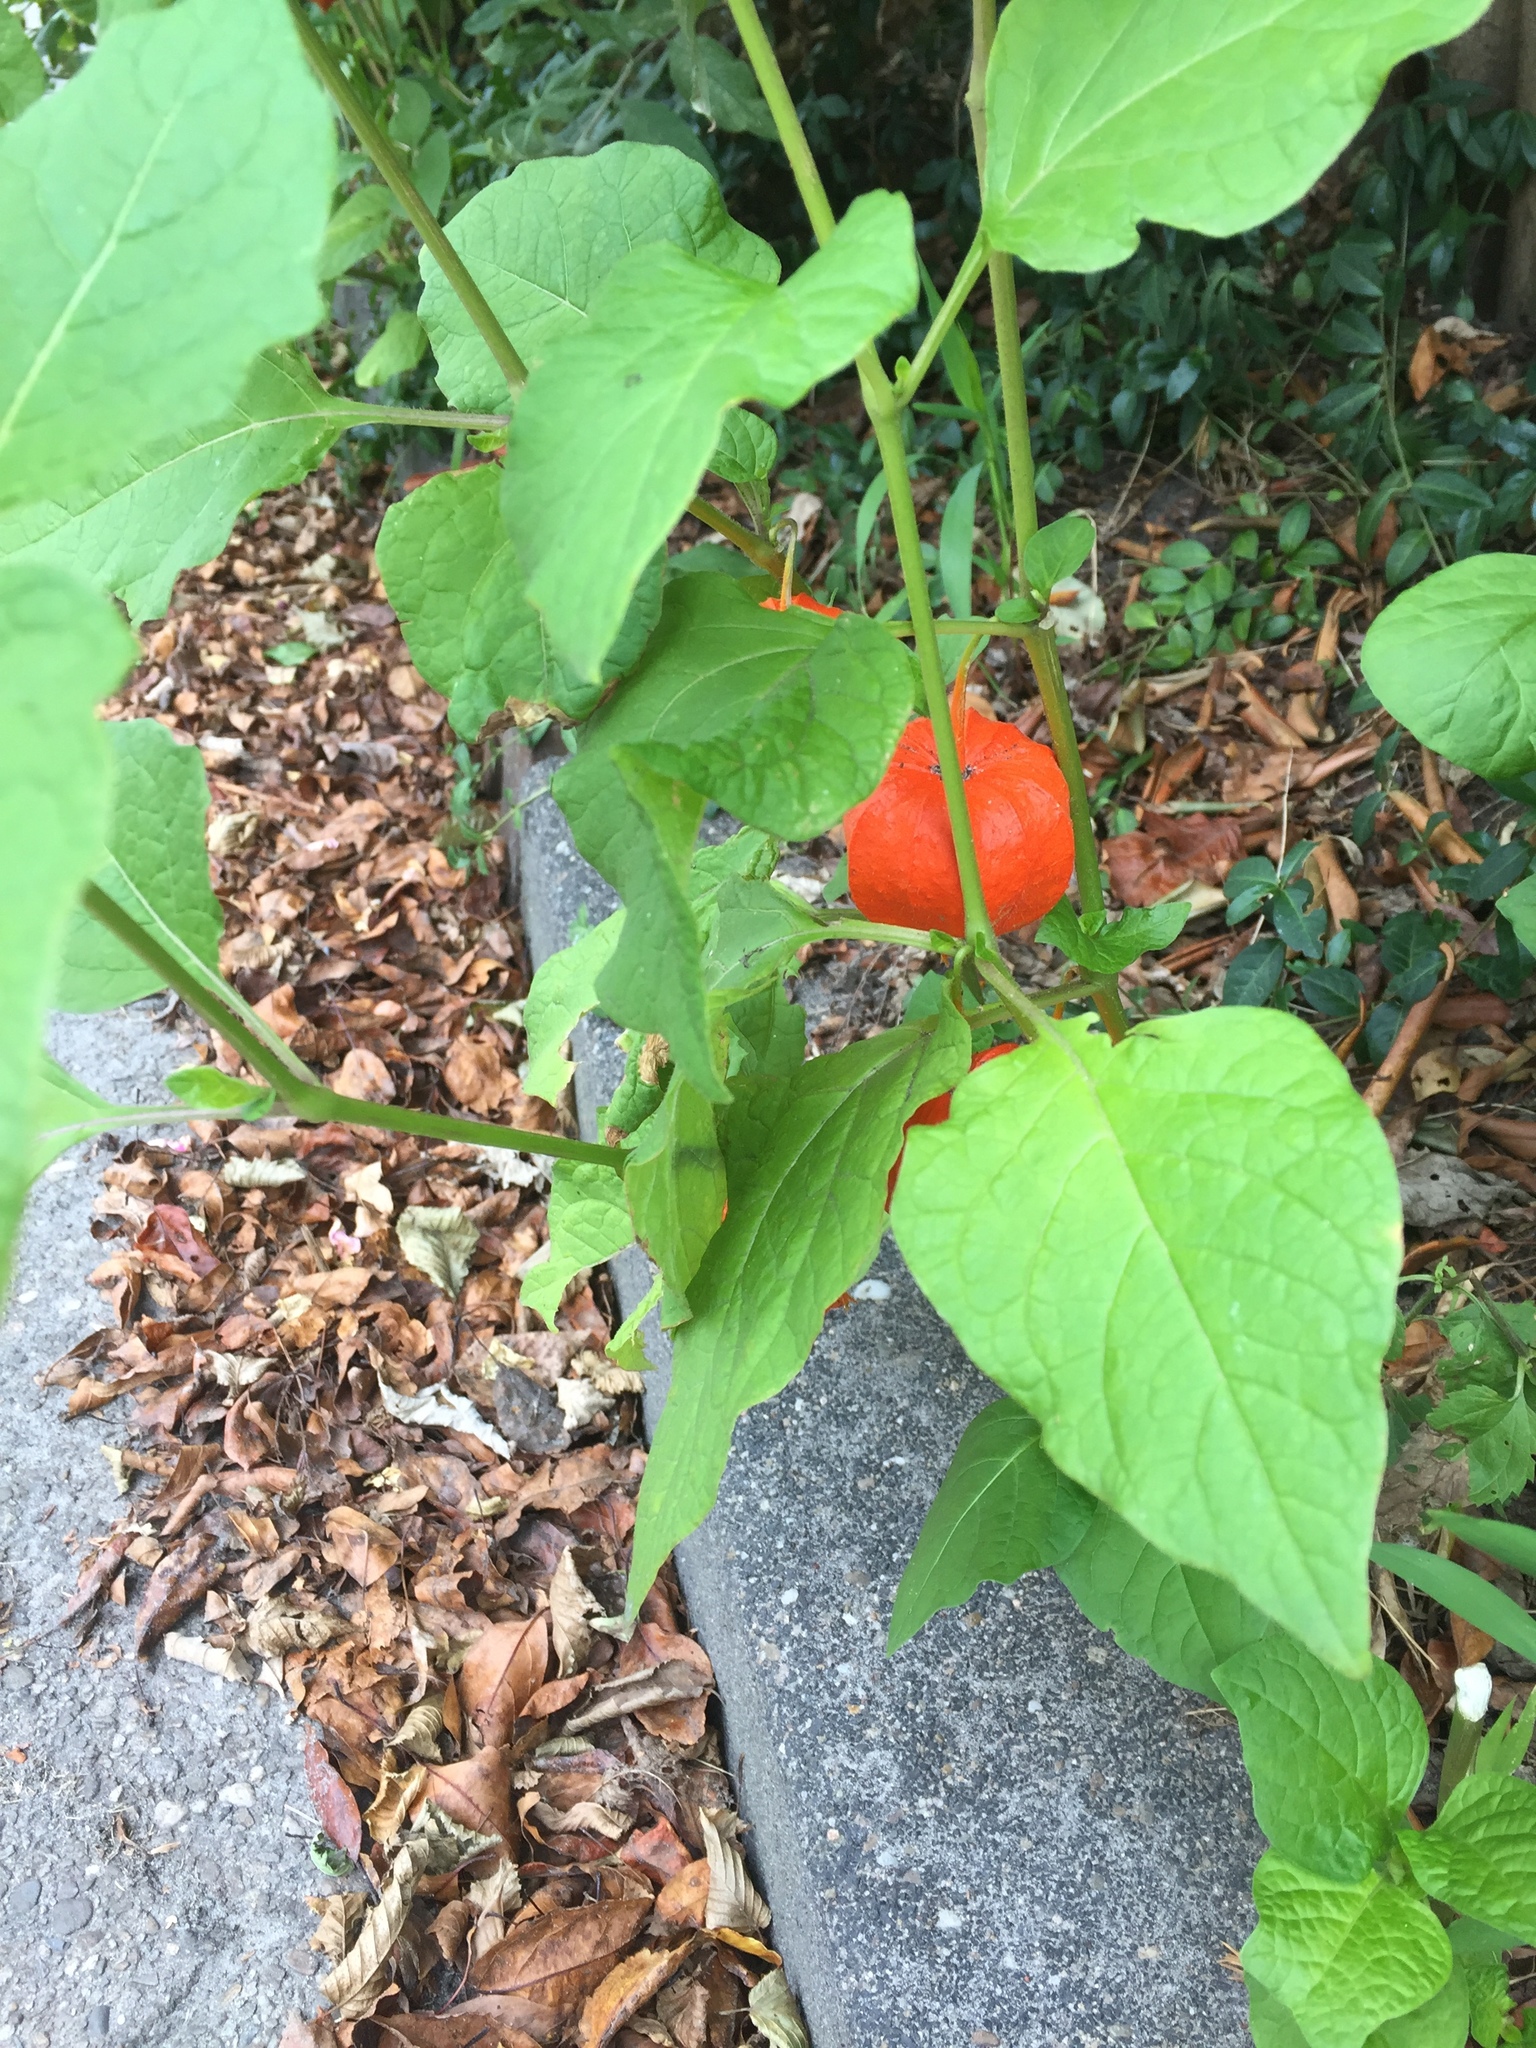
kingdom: Plantae
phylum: Tracheophyta
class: Magnoliopsida
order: Solanales
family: Solanaceae
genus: Alkekengi
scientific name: Alkekengi officinarum
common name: Japanese-lantern
